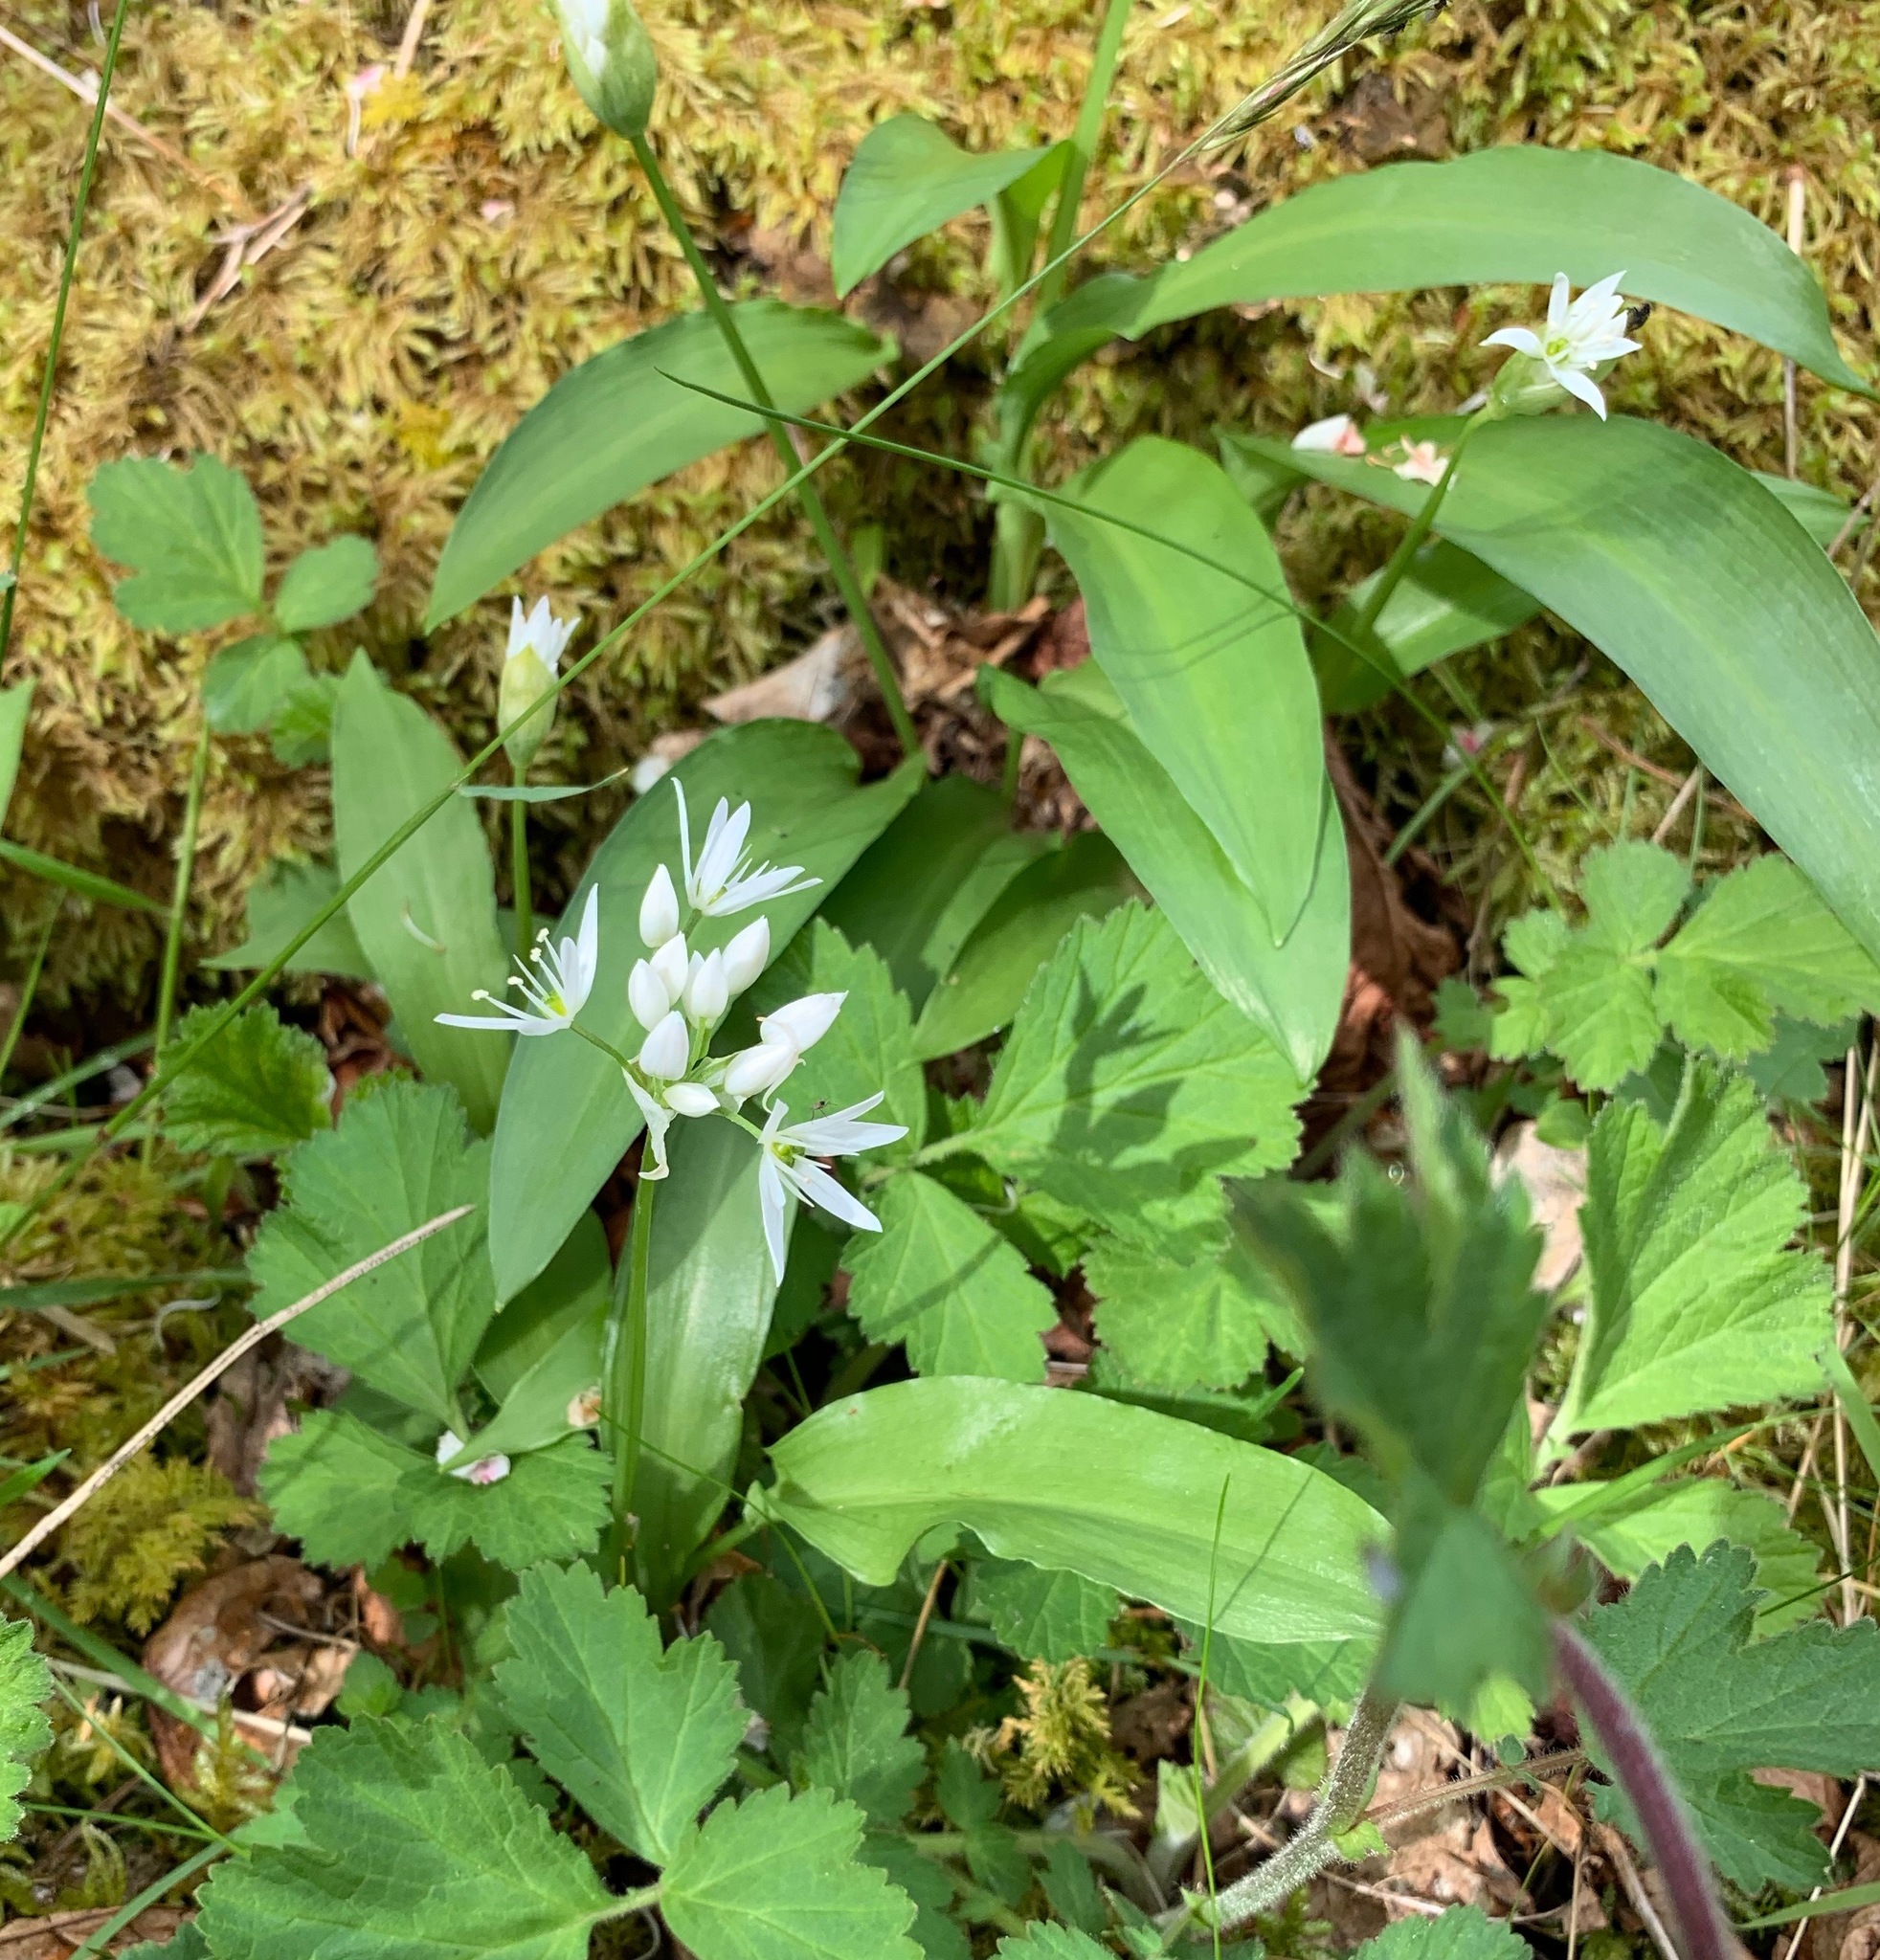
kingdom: Plantae
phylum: Tracheophyta
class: Liliopsida
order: Asparagales
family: Amaryllidaceae
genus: Allium
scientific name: Allium ursinum
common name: Ramsons
